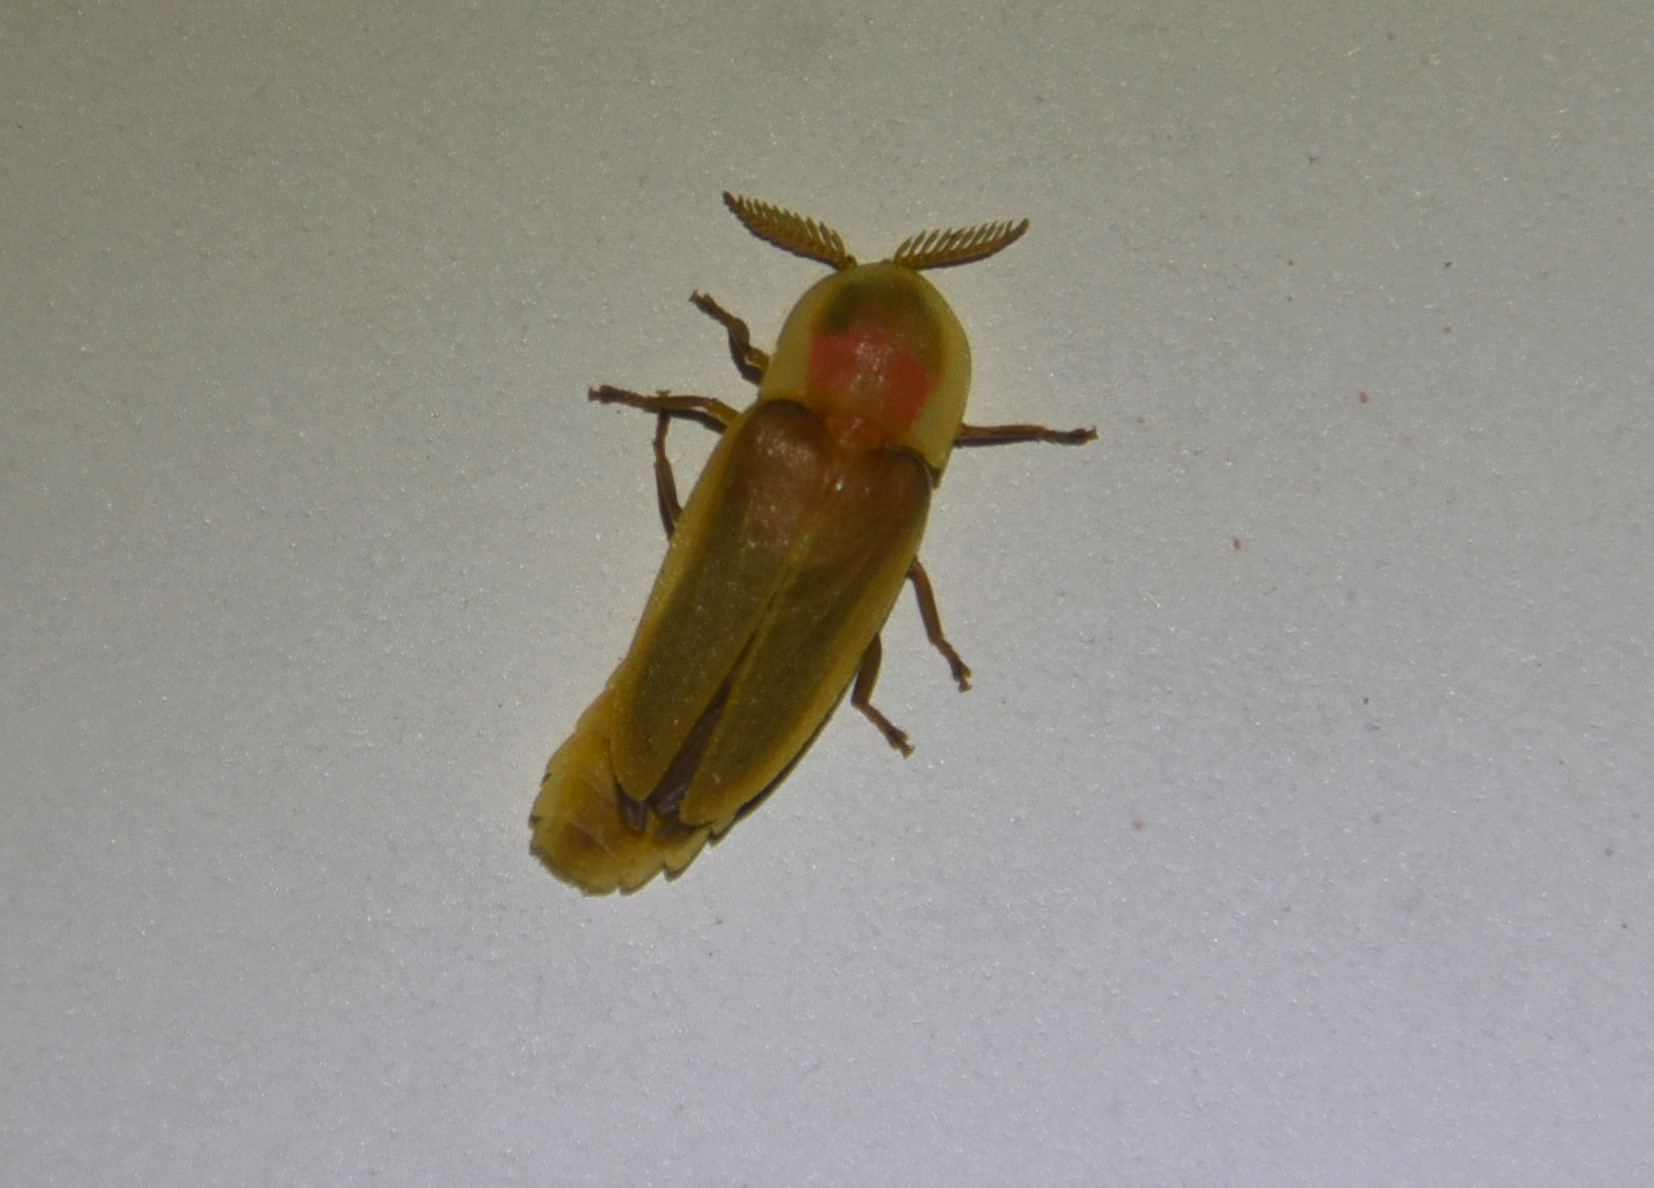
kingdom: Animalia
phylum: Arthropoda
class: Insecta
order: Coleoptera
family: Lampyridae
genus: Pleotomus
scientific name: Pleotomus pallens
